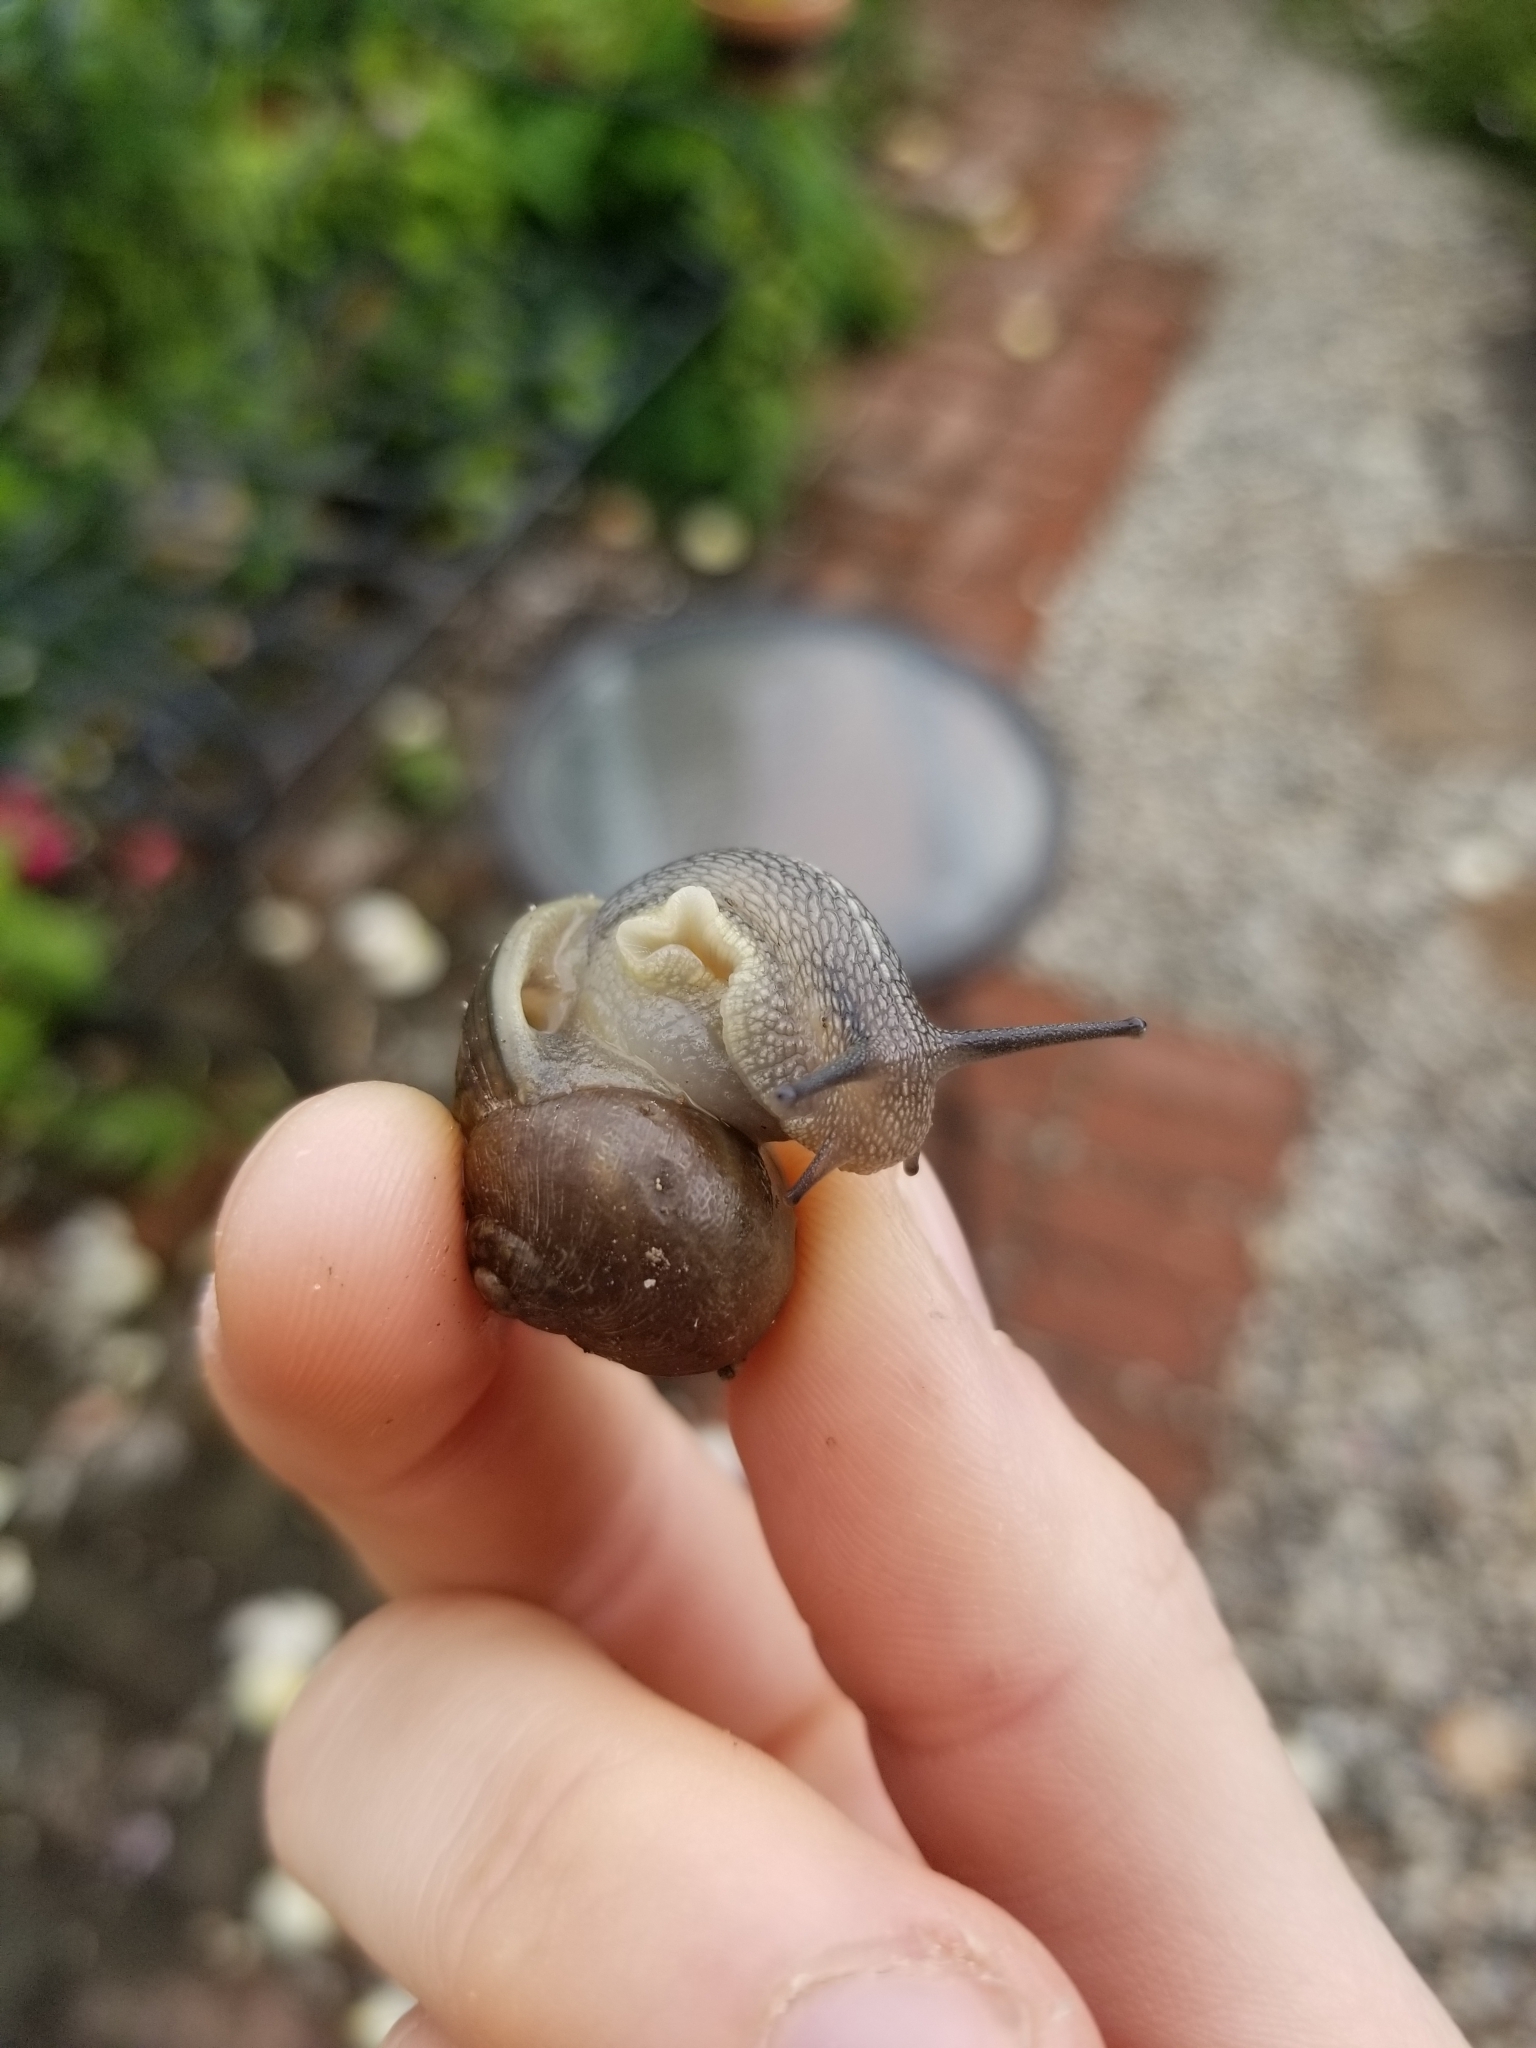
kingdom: Animalia
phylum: Mollusca
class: Gastropoda
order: Stylommatophora
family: Helicidae
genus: Cornu
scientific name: Cornu aspersum
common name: Brown garden snail
